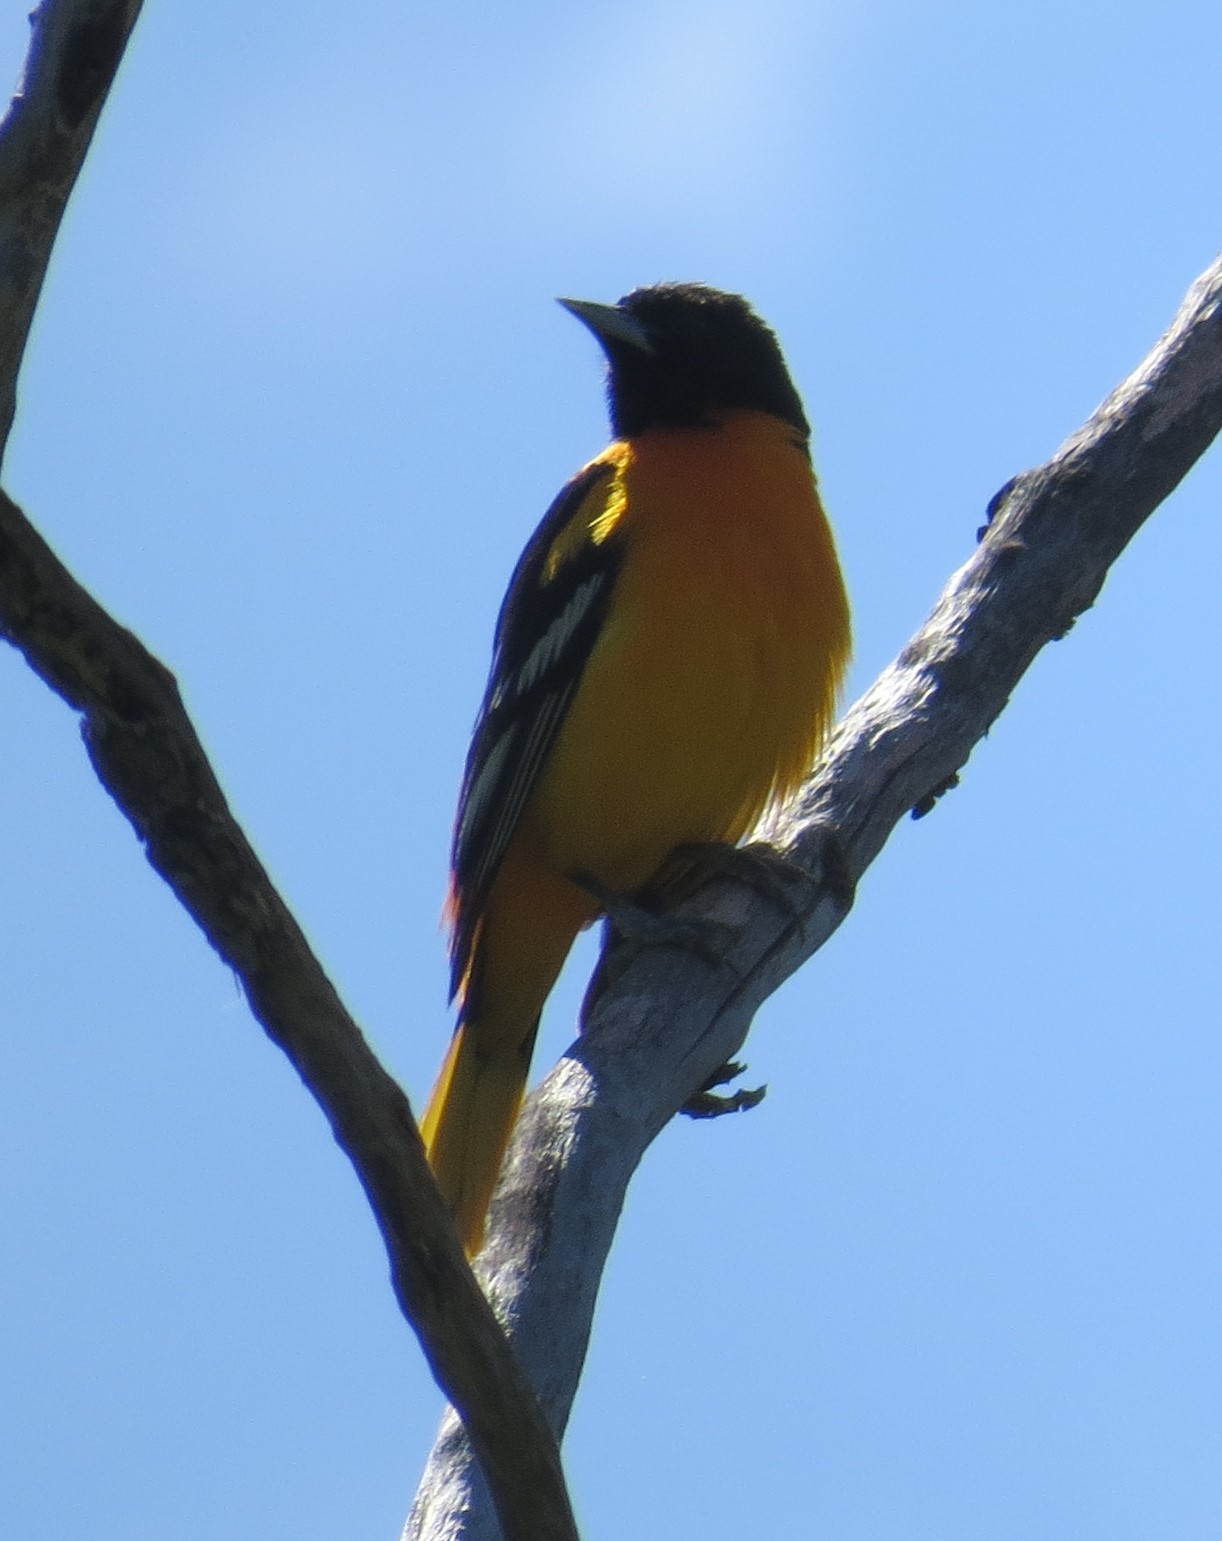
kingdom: Animalia
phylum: Chordata
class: Aves
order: Passeriformes
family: Icteridae
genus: Icterus
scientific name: Icterus galbula
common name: Baltimore oriole
